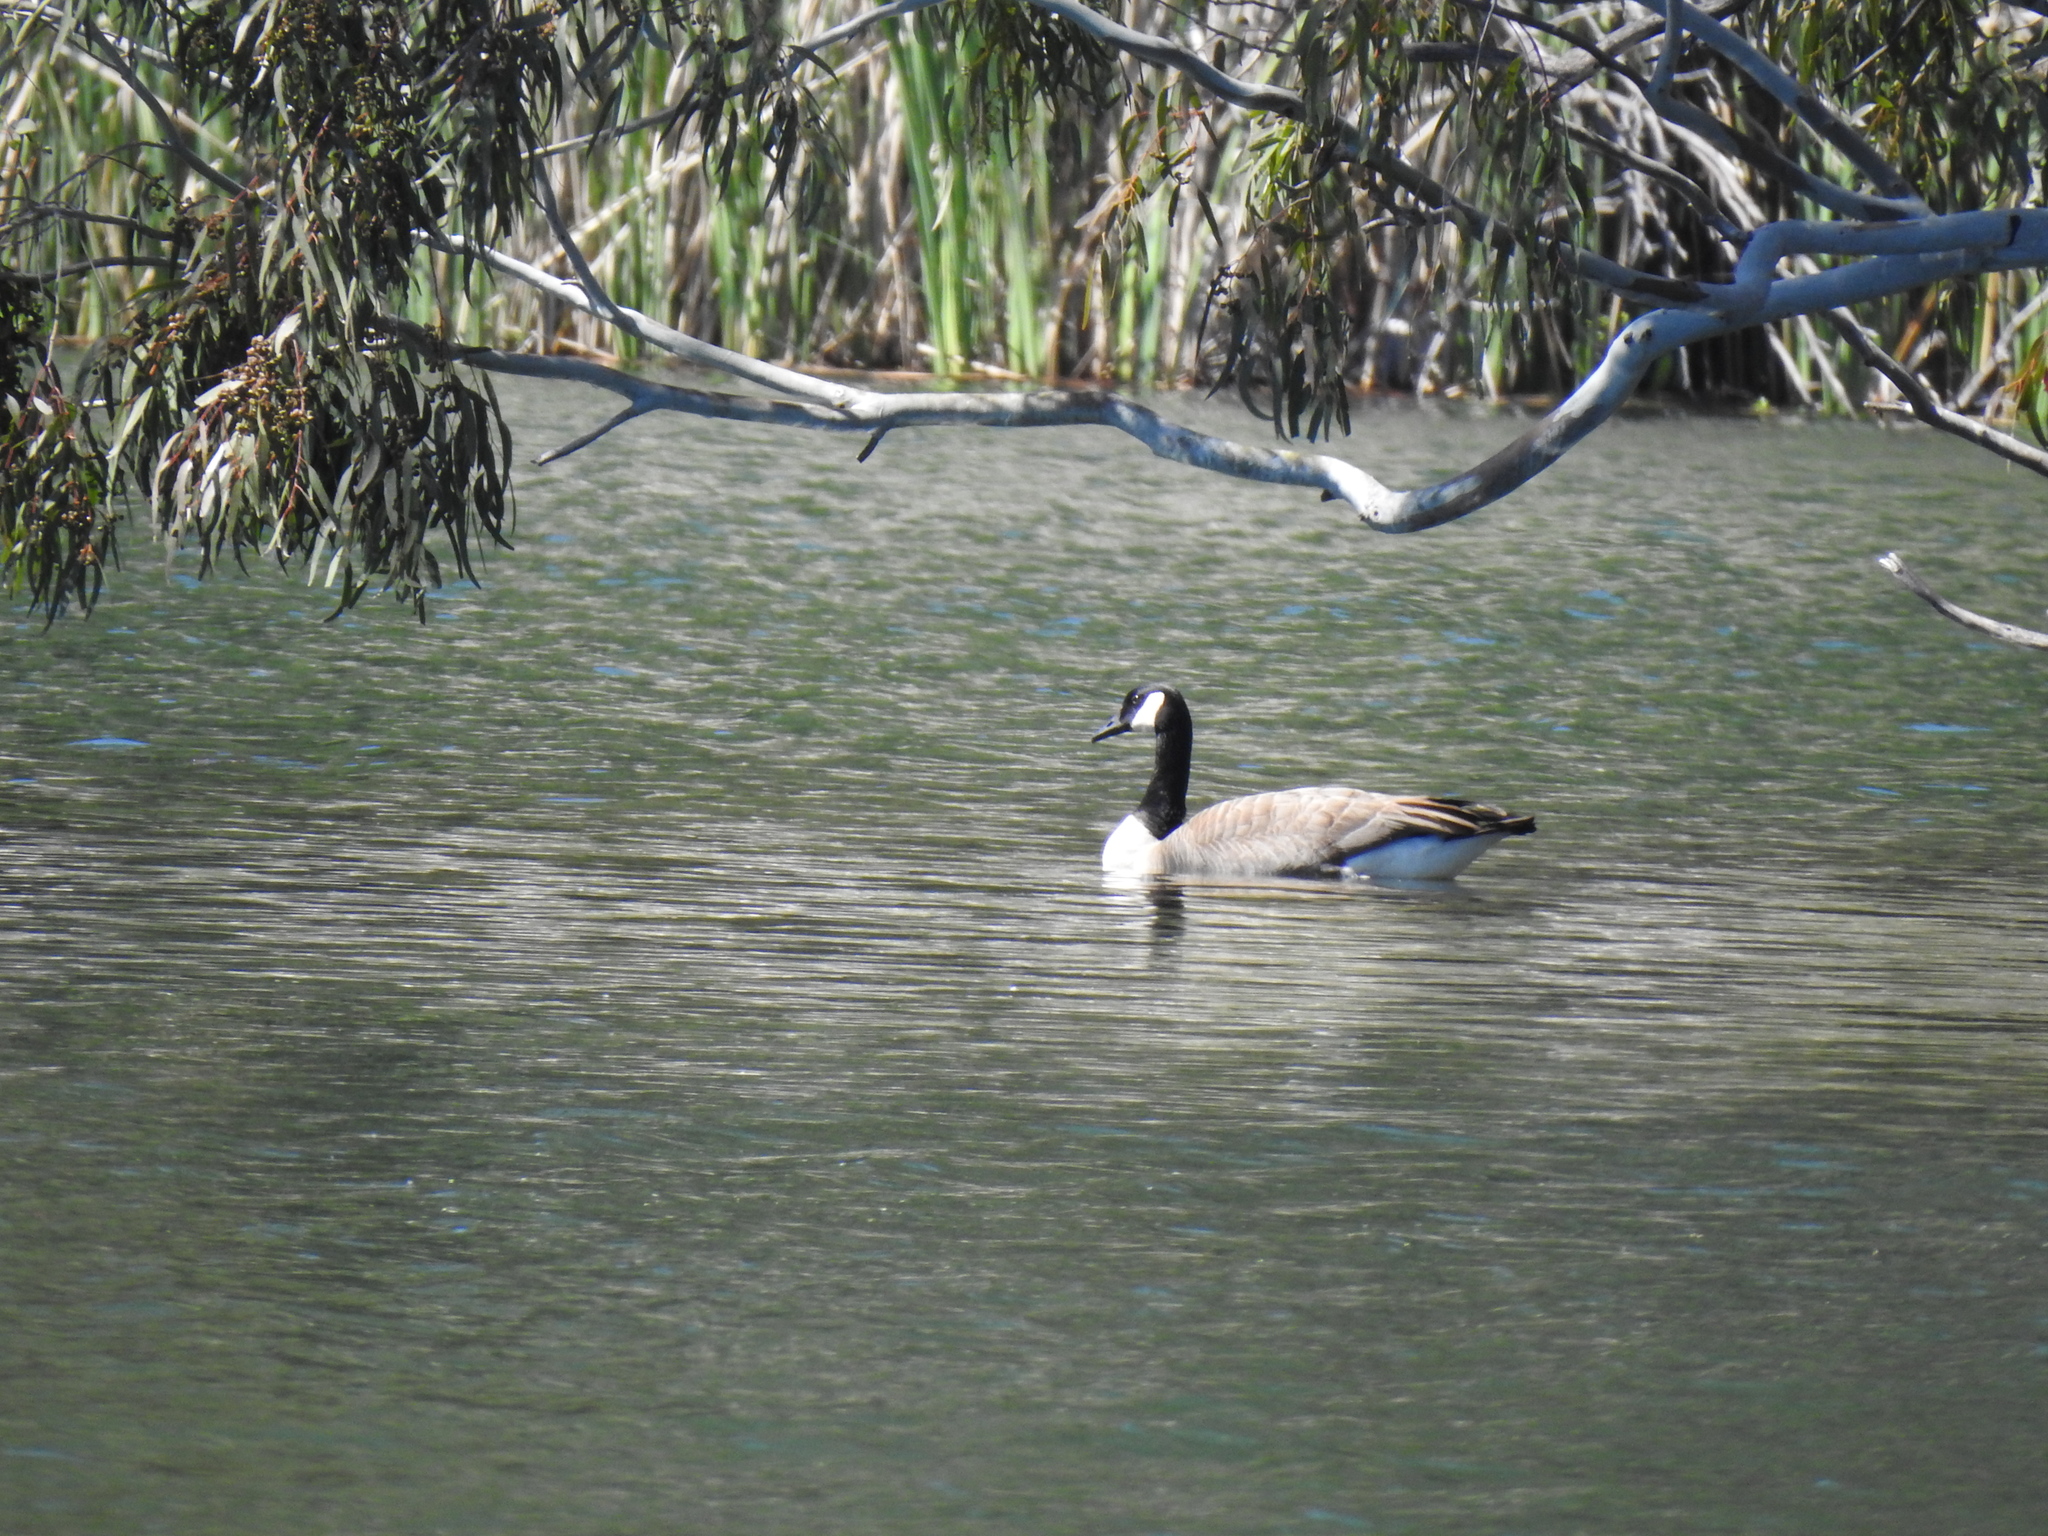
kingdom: Animalia
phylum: Chordata
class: Aves
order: Anseriformes
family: Anatidae
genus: Branta
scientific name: Branta canadensis
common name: Canada goose
